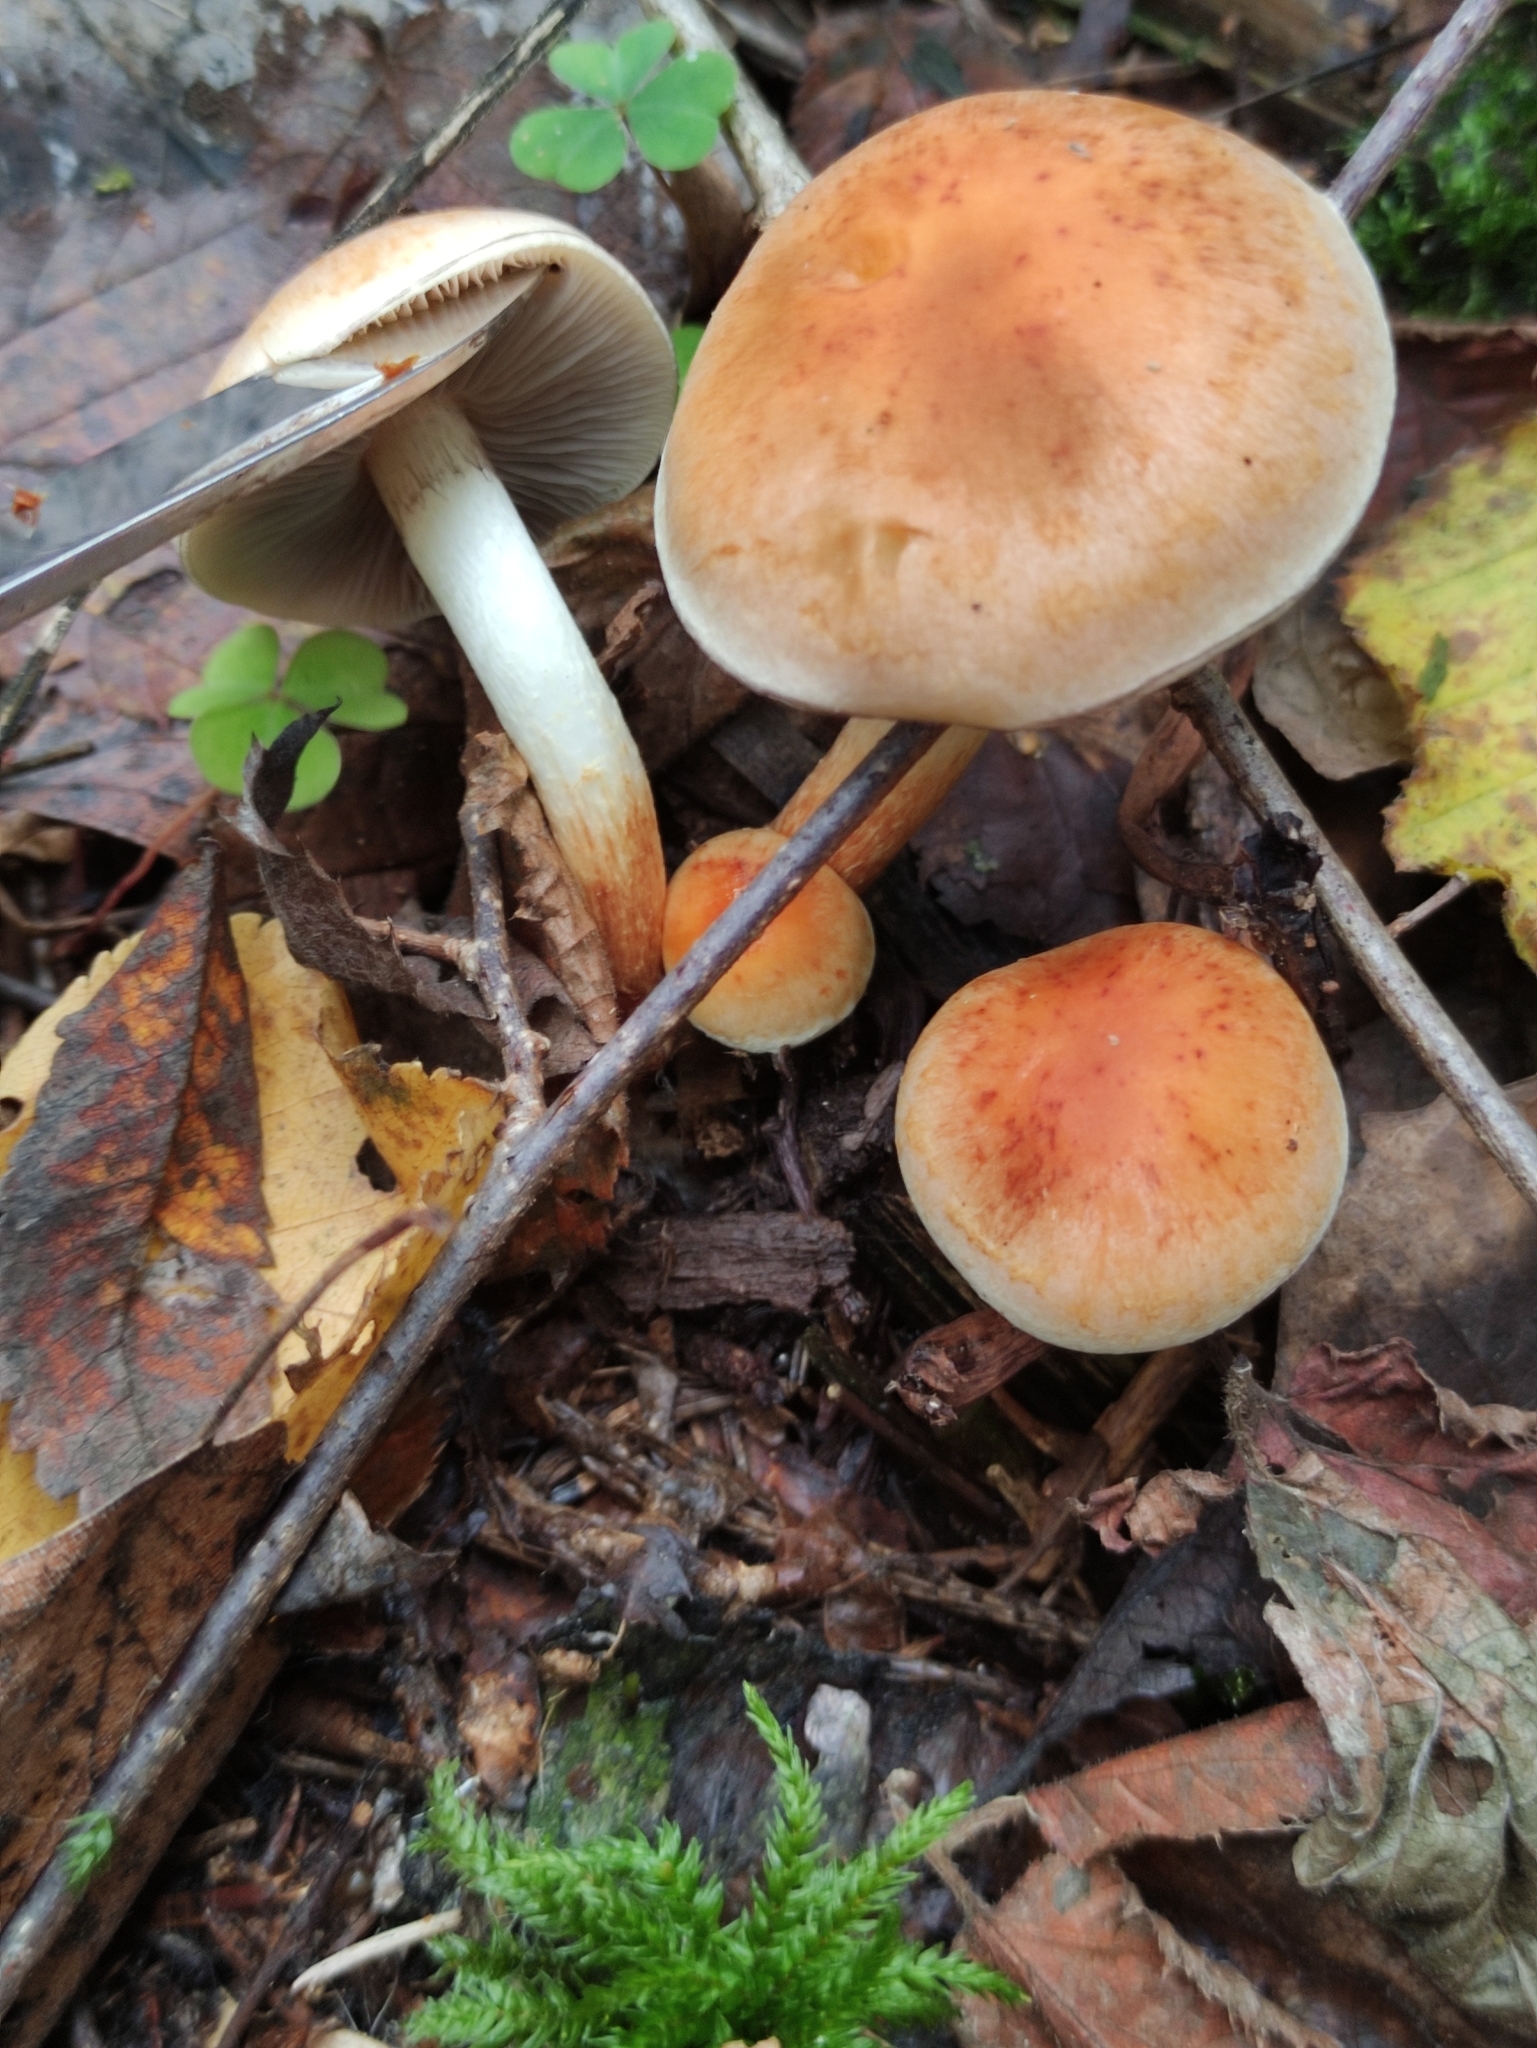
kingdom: Fungi
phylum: Basidiomycota
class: Agaricomycetes
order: Agaricales
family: Strophariaceae
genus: Hypholoma
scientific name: Hypholoma capnoides
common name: Conifer tuft
